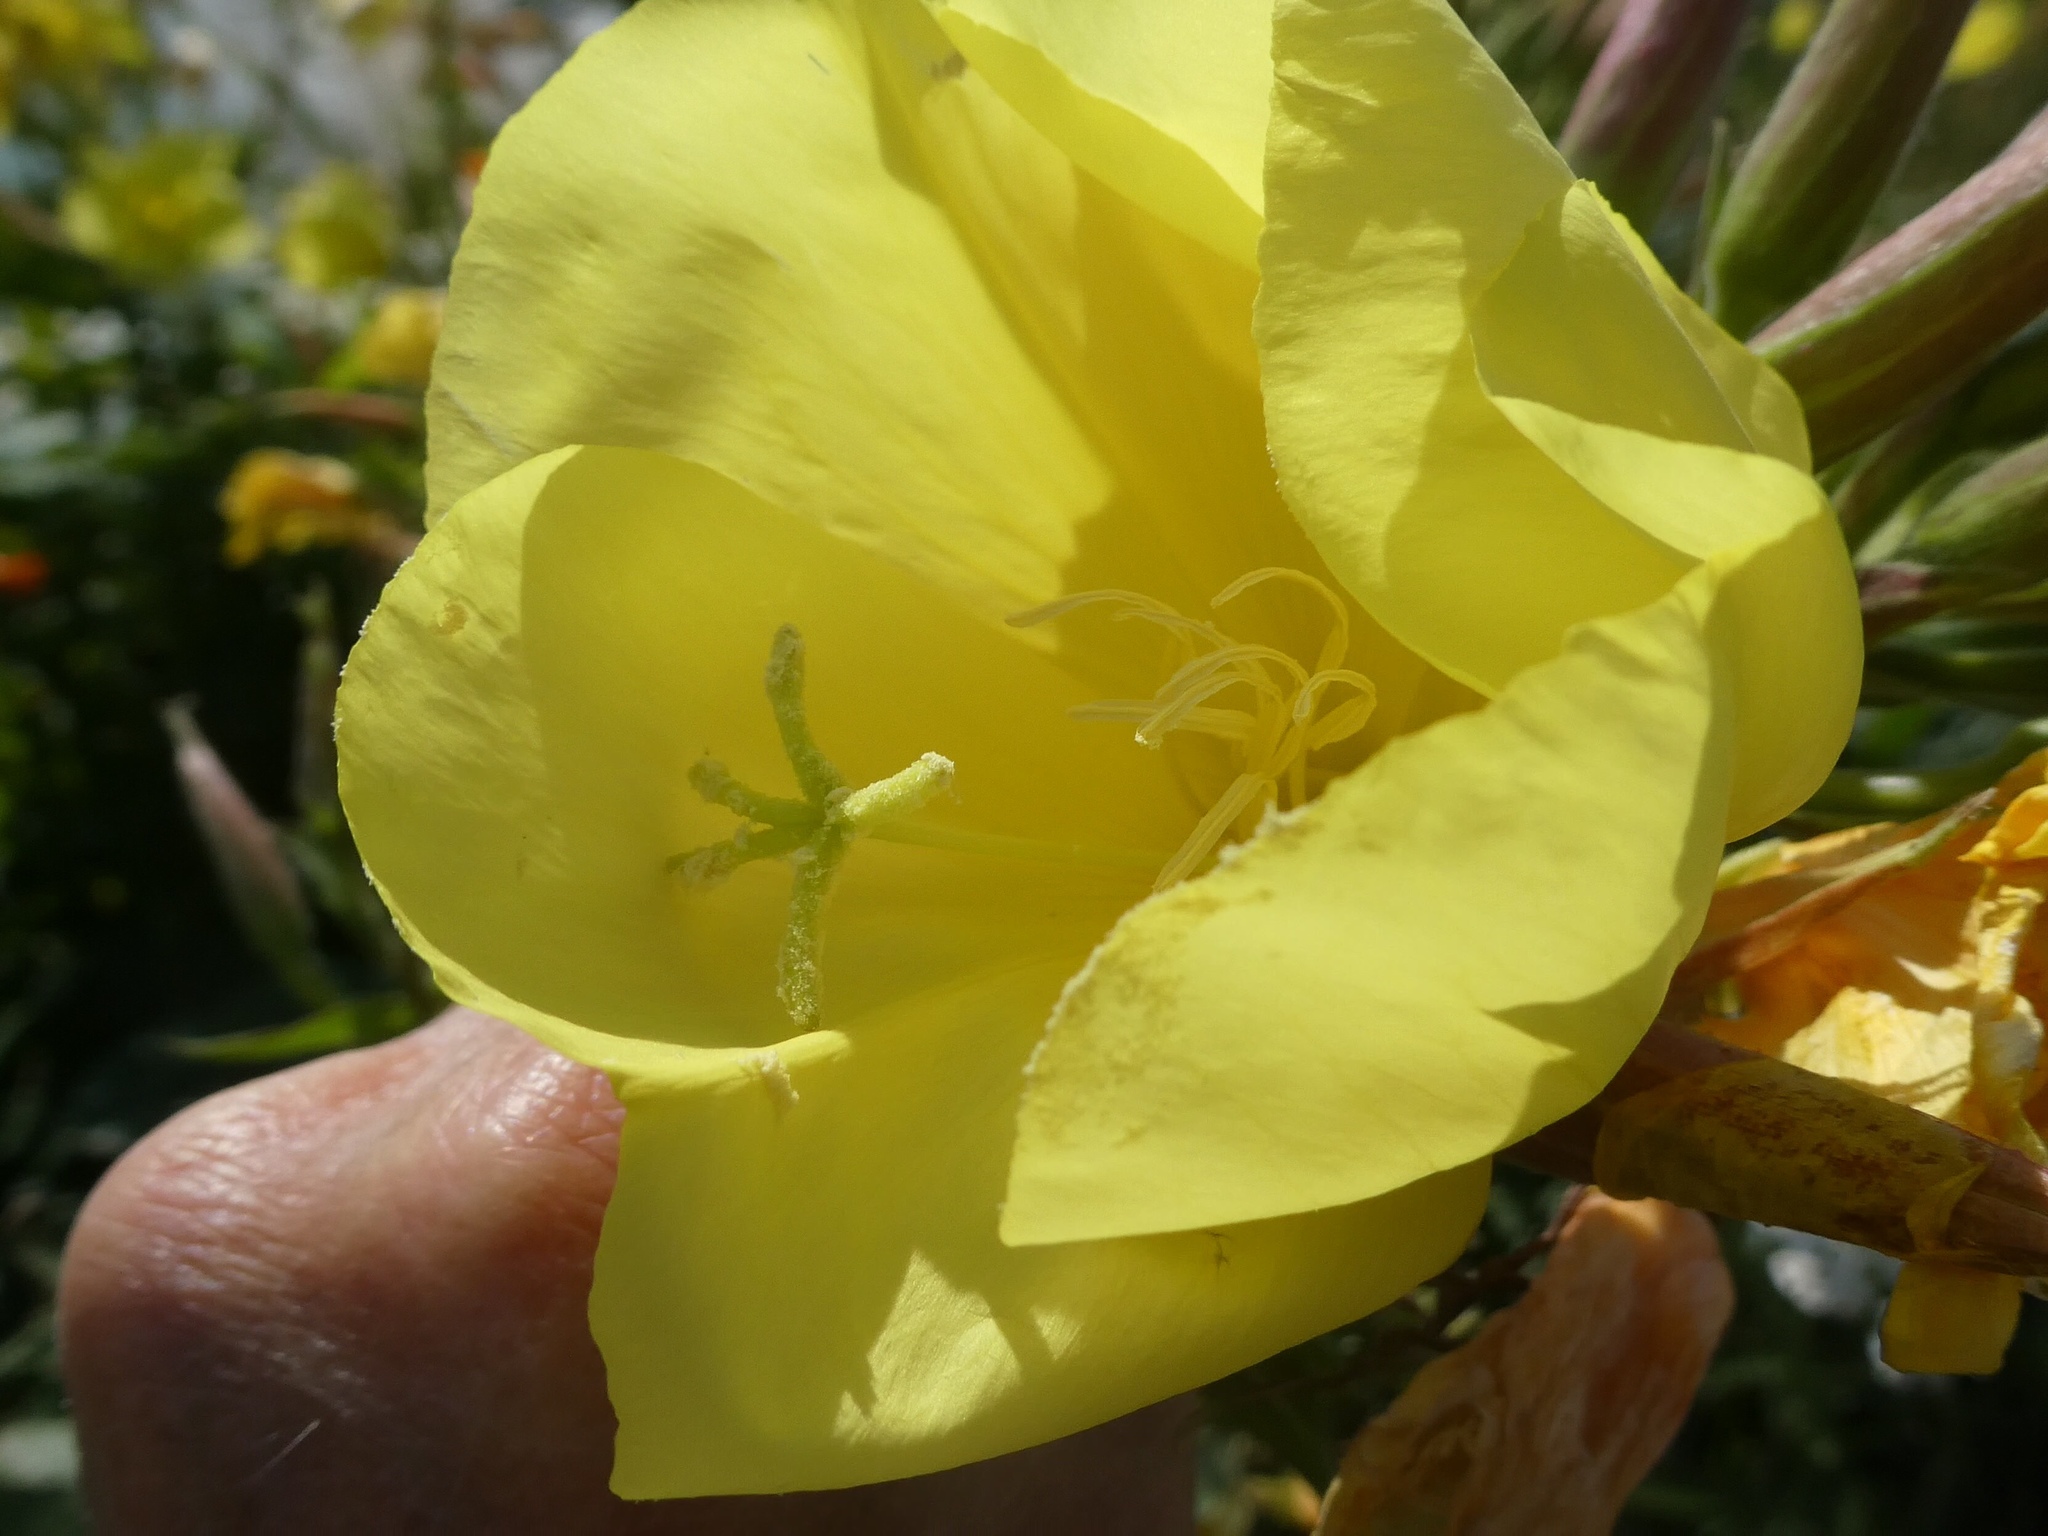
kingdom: Plantae
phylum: Tracheophyta
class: Magnoliopsida
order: Myrtales
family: Onagraceae
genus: Oenothera
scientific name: Oenothera glazioviana
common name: Large-flowered evening-primrose
